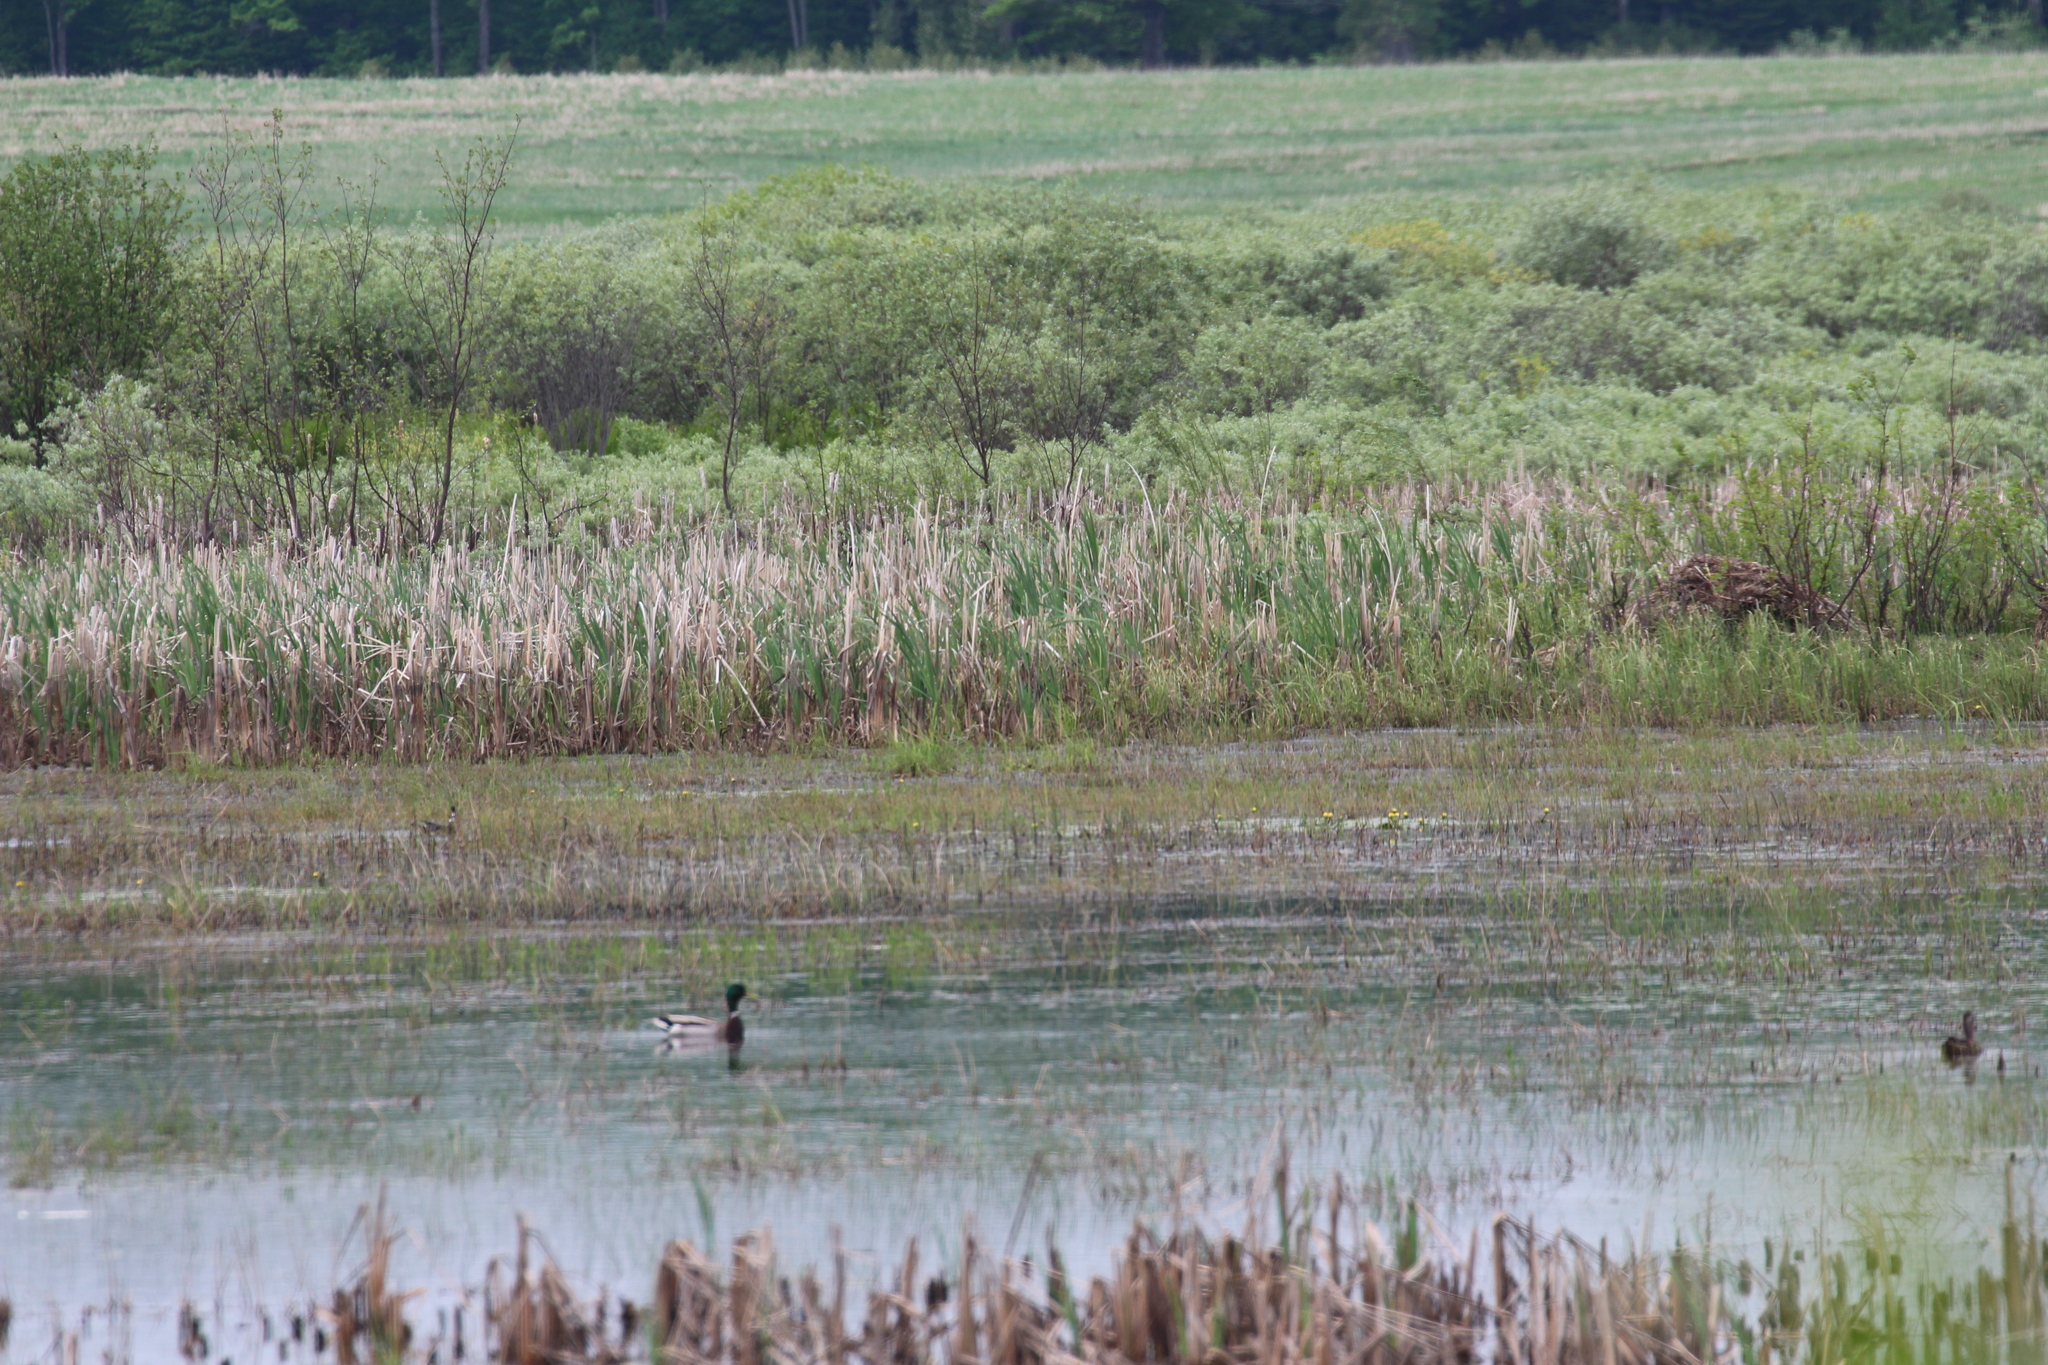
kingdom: Animalia
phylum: Chordata
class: Aves
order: Anseriformes
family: Anatidae
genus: Anas
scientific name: Anas platyrhynchos
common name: Mallard
